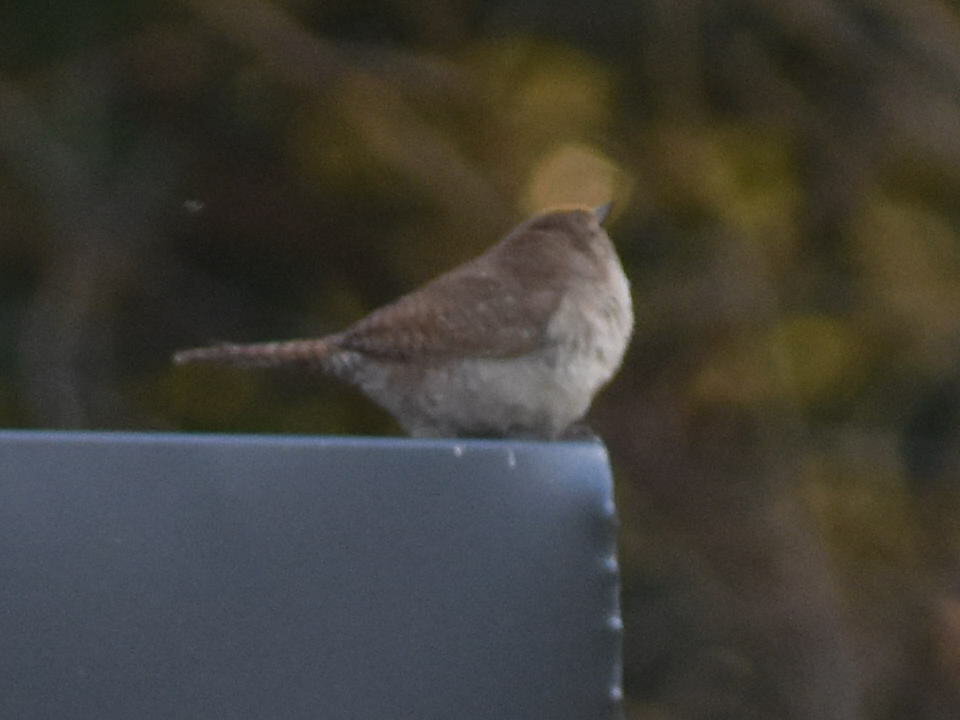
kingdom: Animalia
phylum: Chordata
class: Aves
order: Passeriformes
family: Troglodytidae
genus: Troglodytes
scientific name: Troglodytes aedon
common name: House wren
